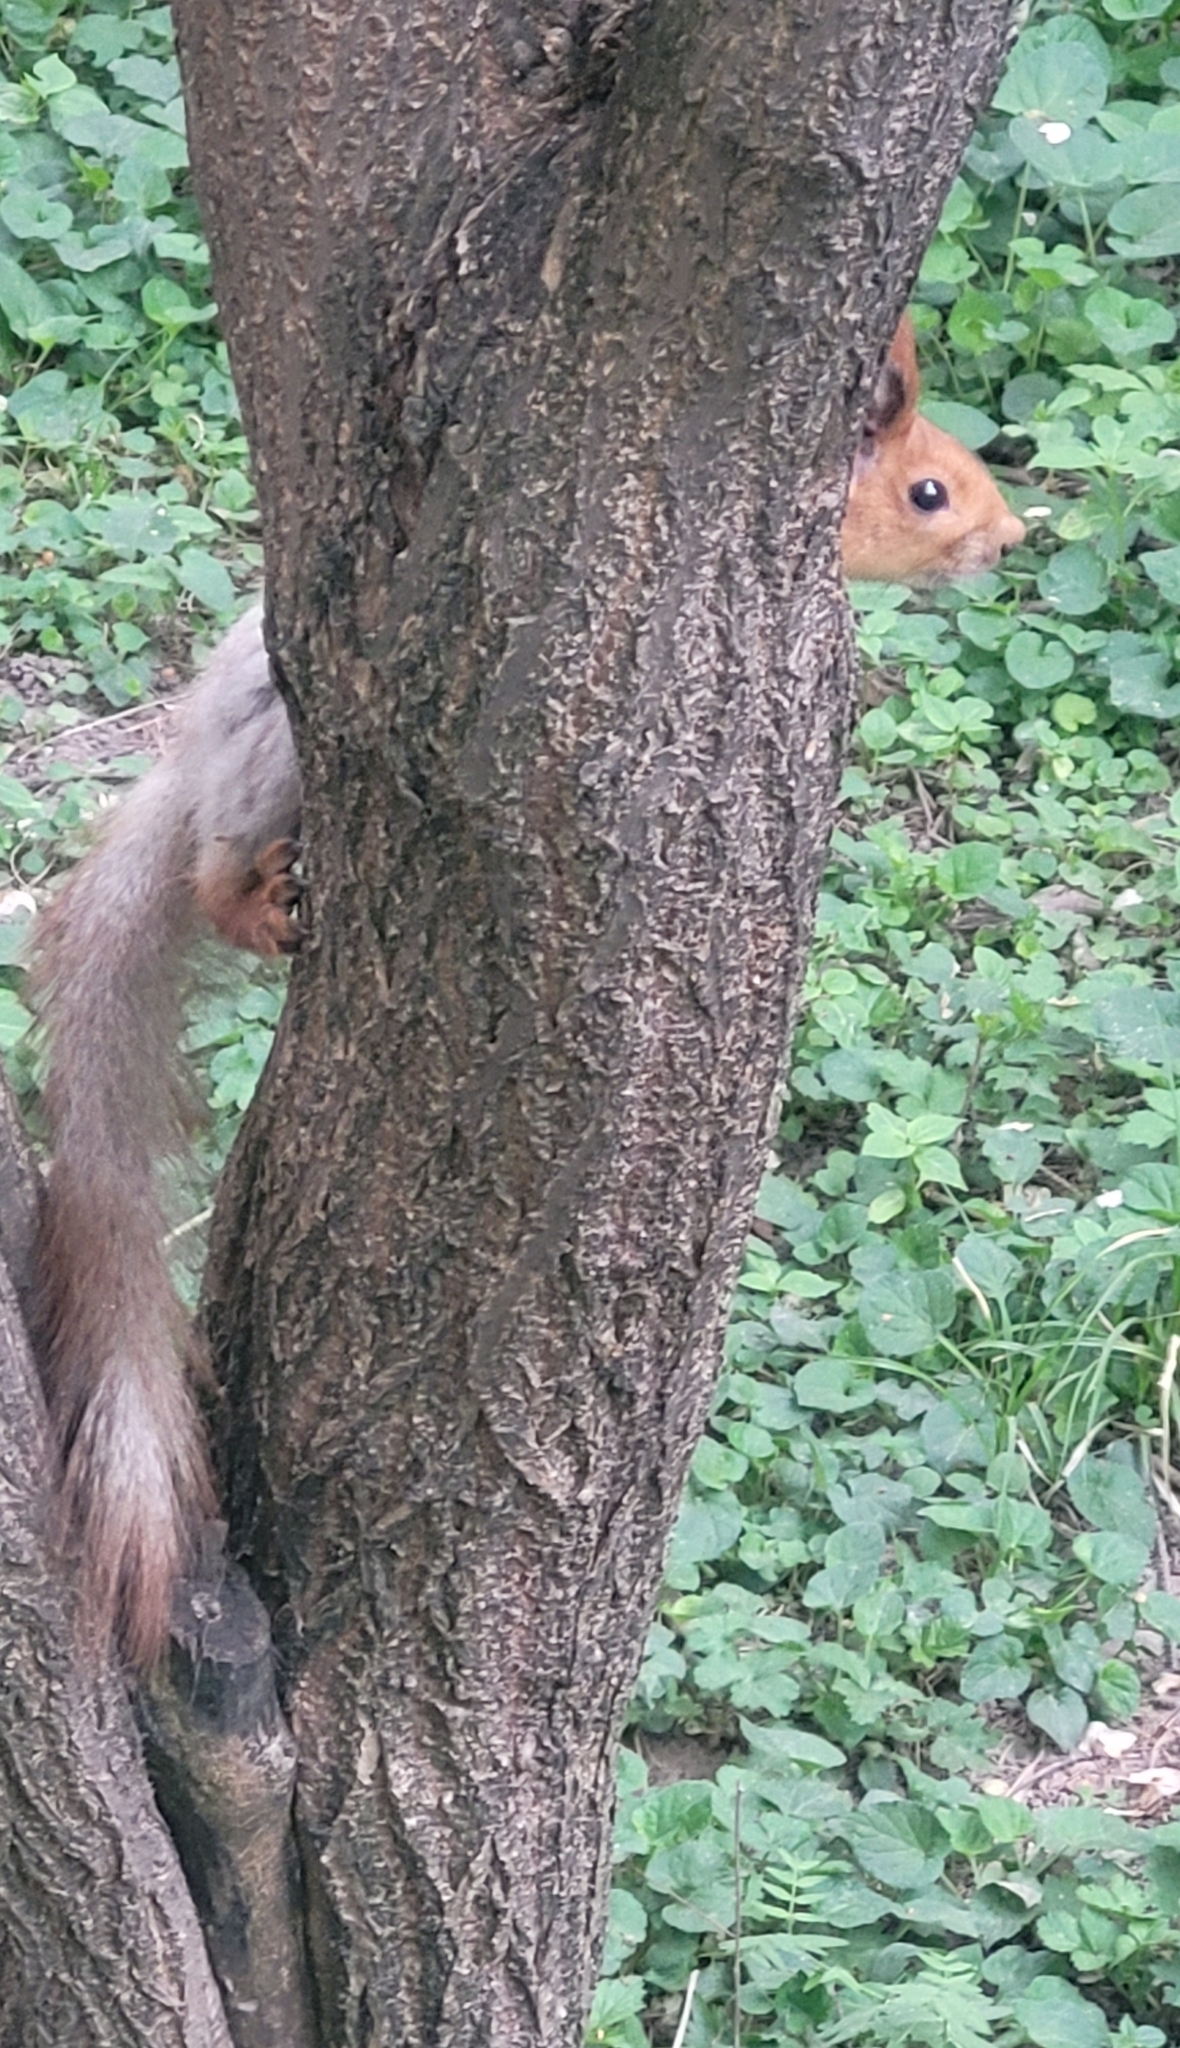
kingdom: Animalia
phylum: Chordata
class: Mammalia
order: Rodentia
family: Sciuridae
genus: Sciurus
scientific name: Sciurus vulgaris
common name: Eurasian red squirrel
